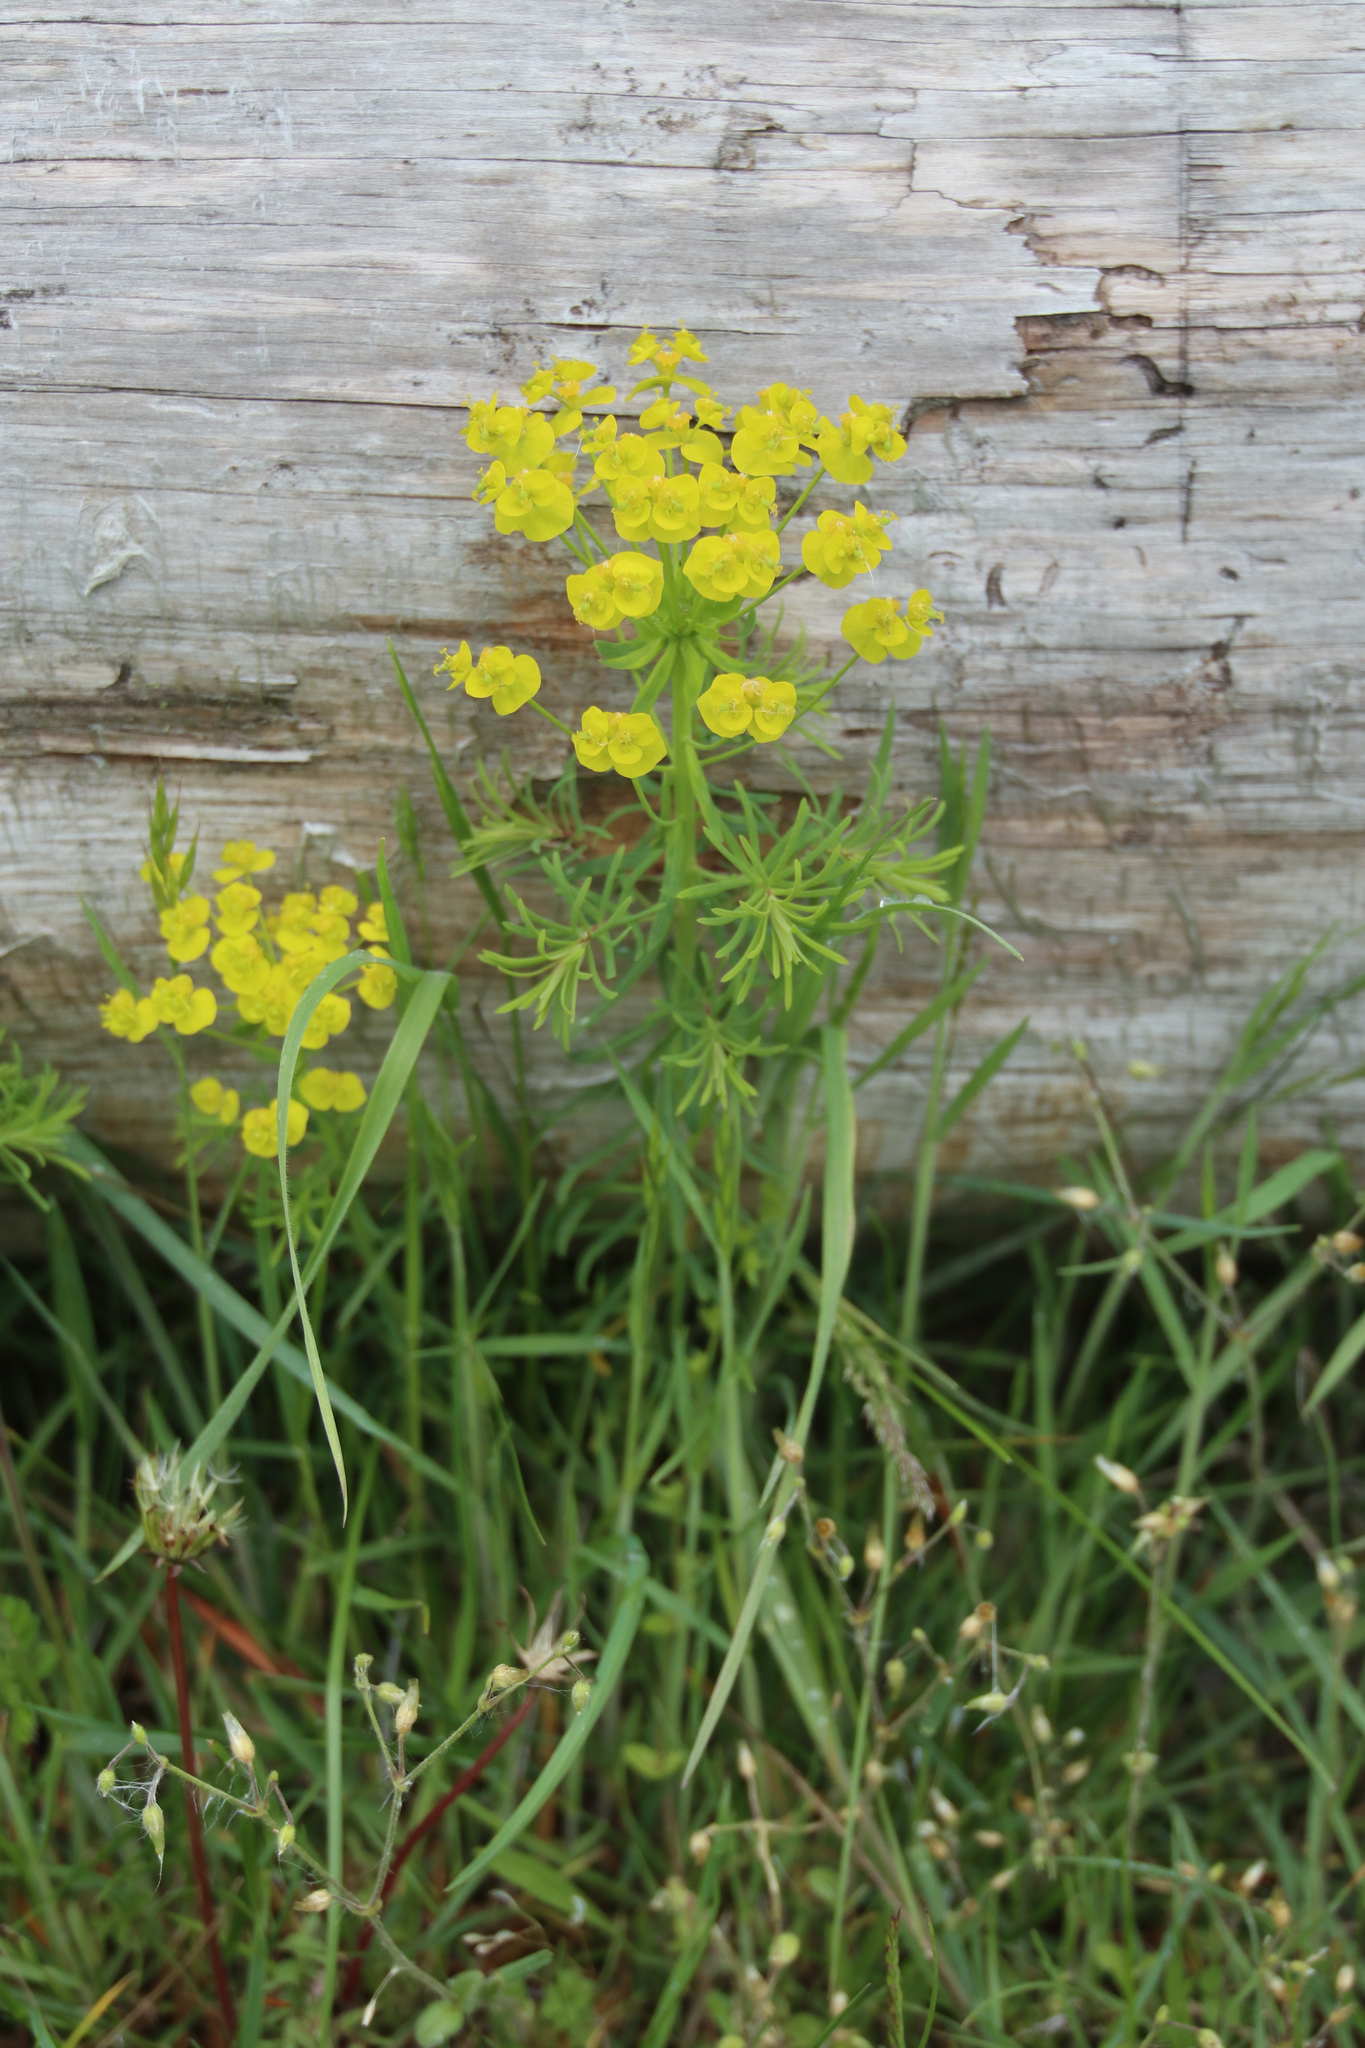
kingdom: Plantae
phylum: Tracheophyta
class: Magnoliopsida
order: Malpighiales
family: Euphorbiaceae
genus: Euphorbia
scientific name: Euphorbia cyparissias
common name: Cypress spurge
